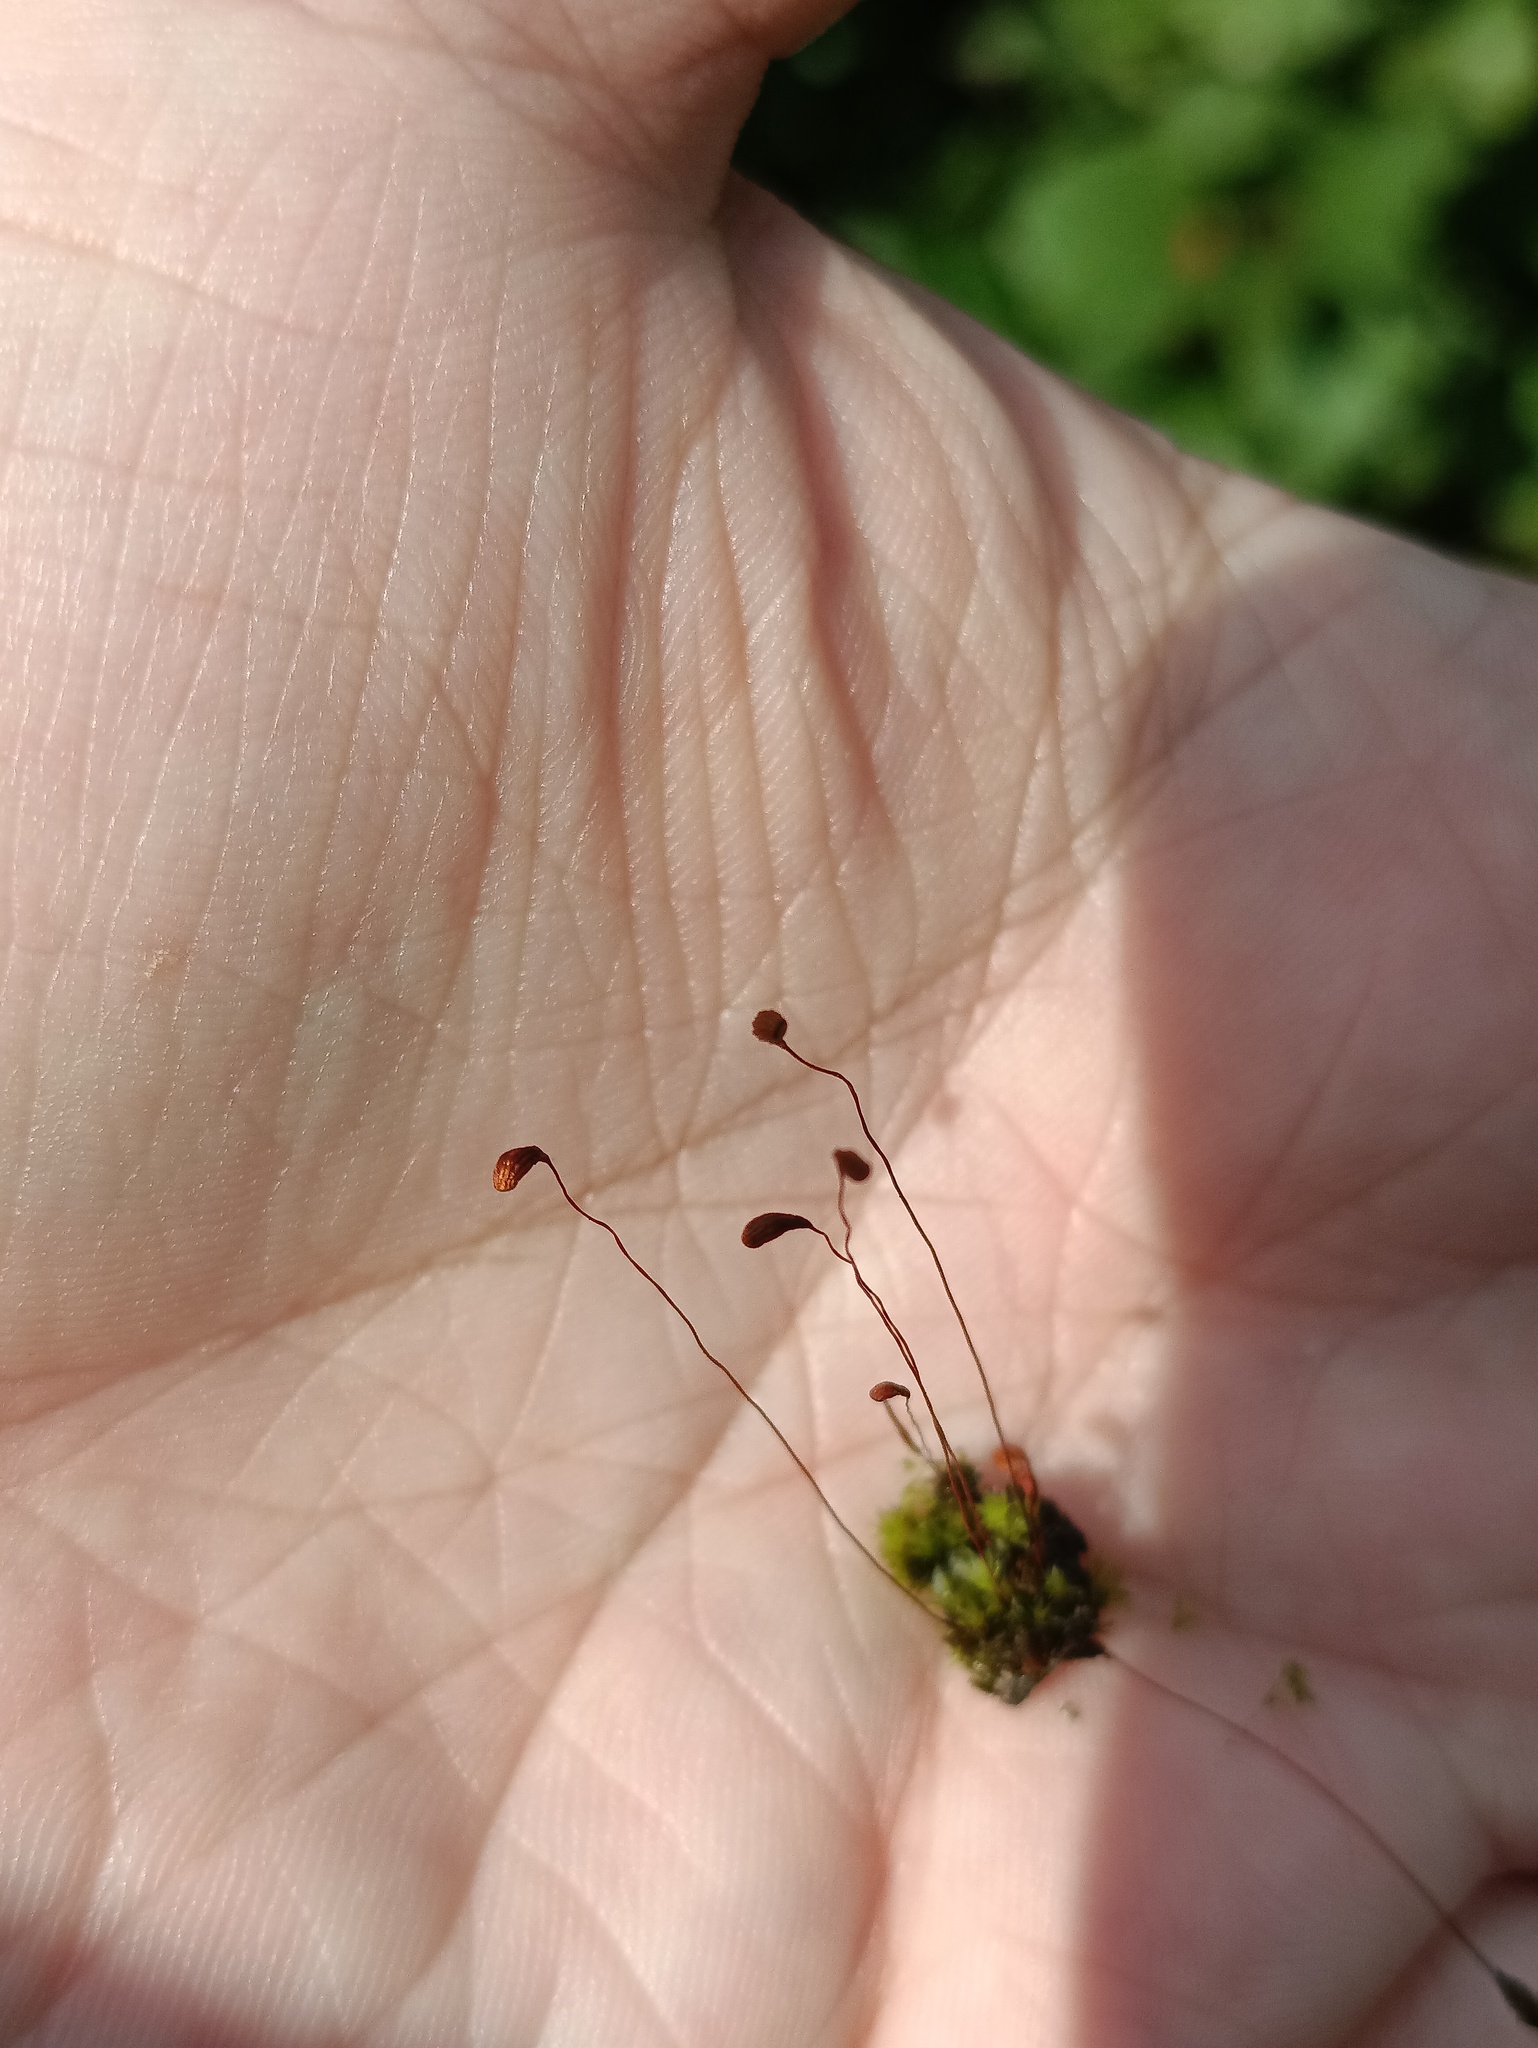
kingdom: Plantae
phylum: Tracheophyta
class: Liliopsida
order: Poales
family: Typhaceae
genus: Typha
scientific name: Typha latifolia
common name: Broadleaf cattail
